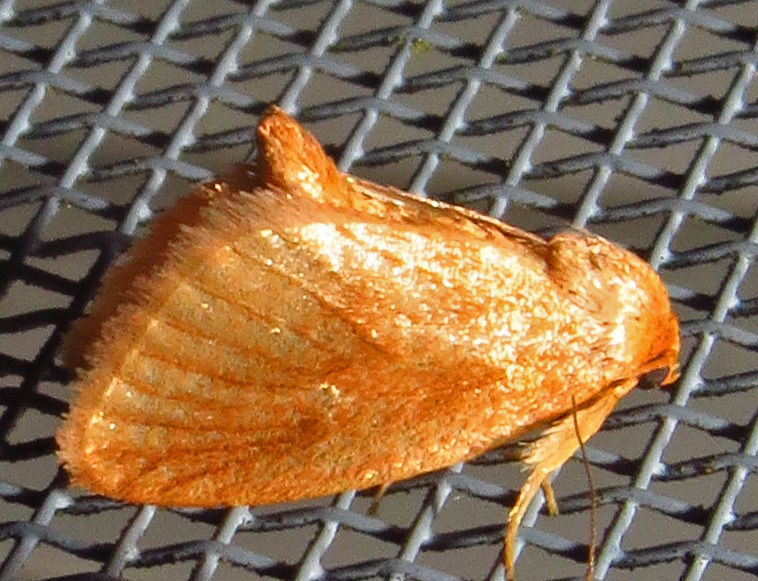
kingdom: Animalia
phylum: Arthropoda
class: Insecta
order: Lepidoptera
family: Limacodidae
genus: Tortricidia
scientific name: Tortricidia testacea
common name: Early button slug moth
